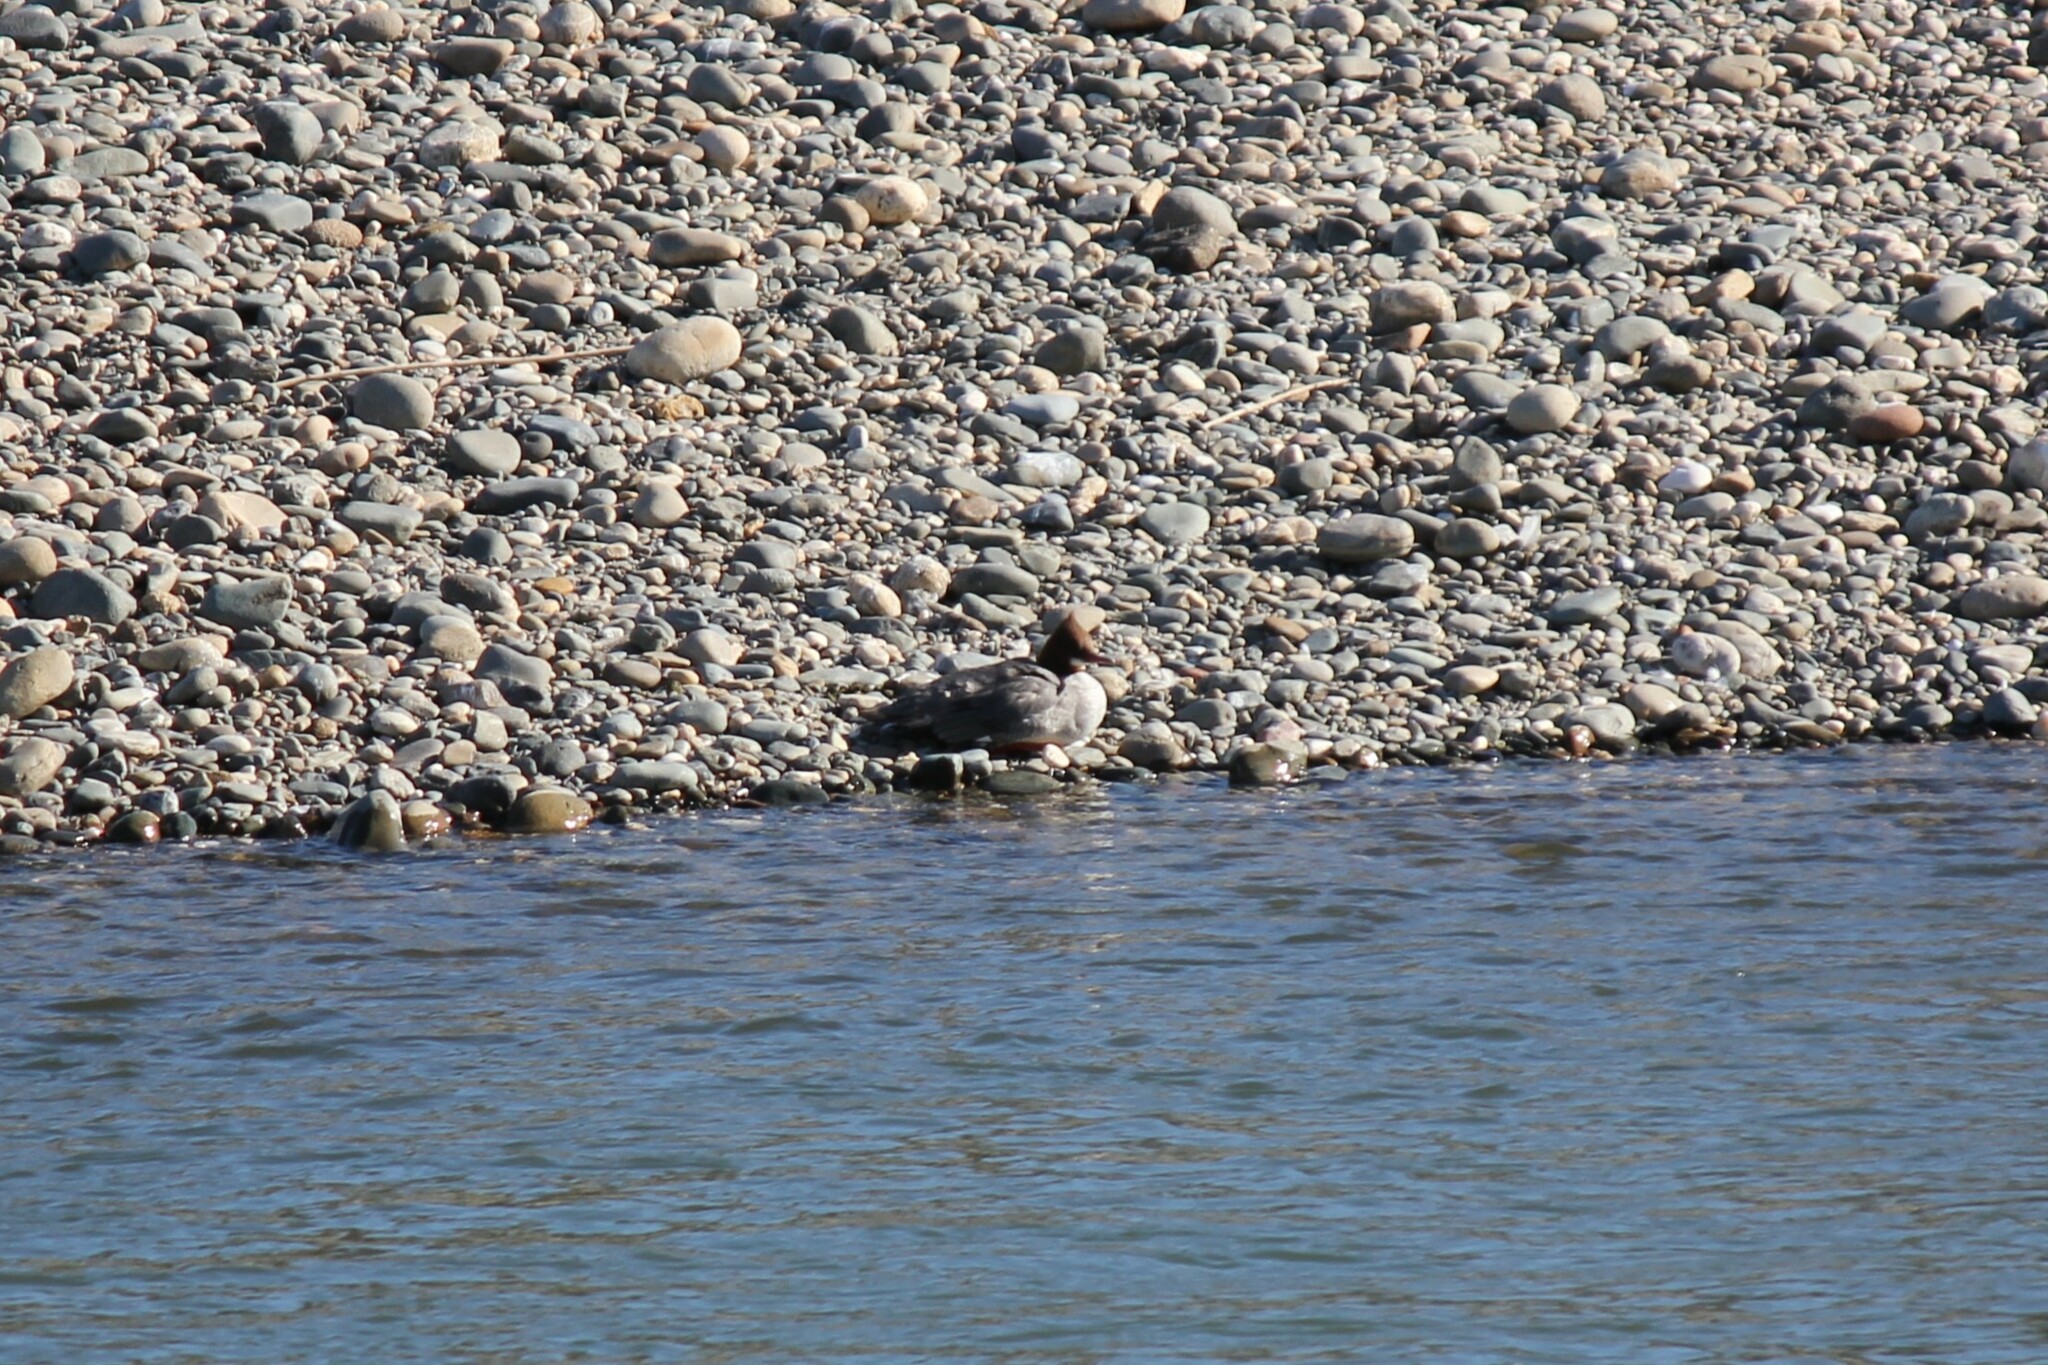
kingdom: Animalia
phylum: Chordata
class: Aves
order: Anseriformes
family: Anatidae
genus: Mergus
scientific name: Mergus merganser
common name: Common merganser
